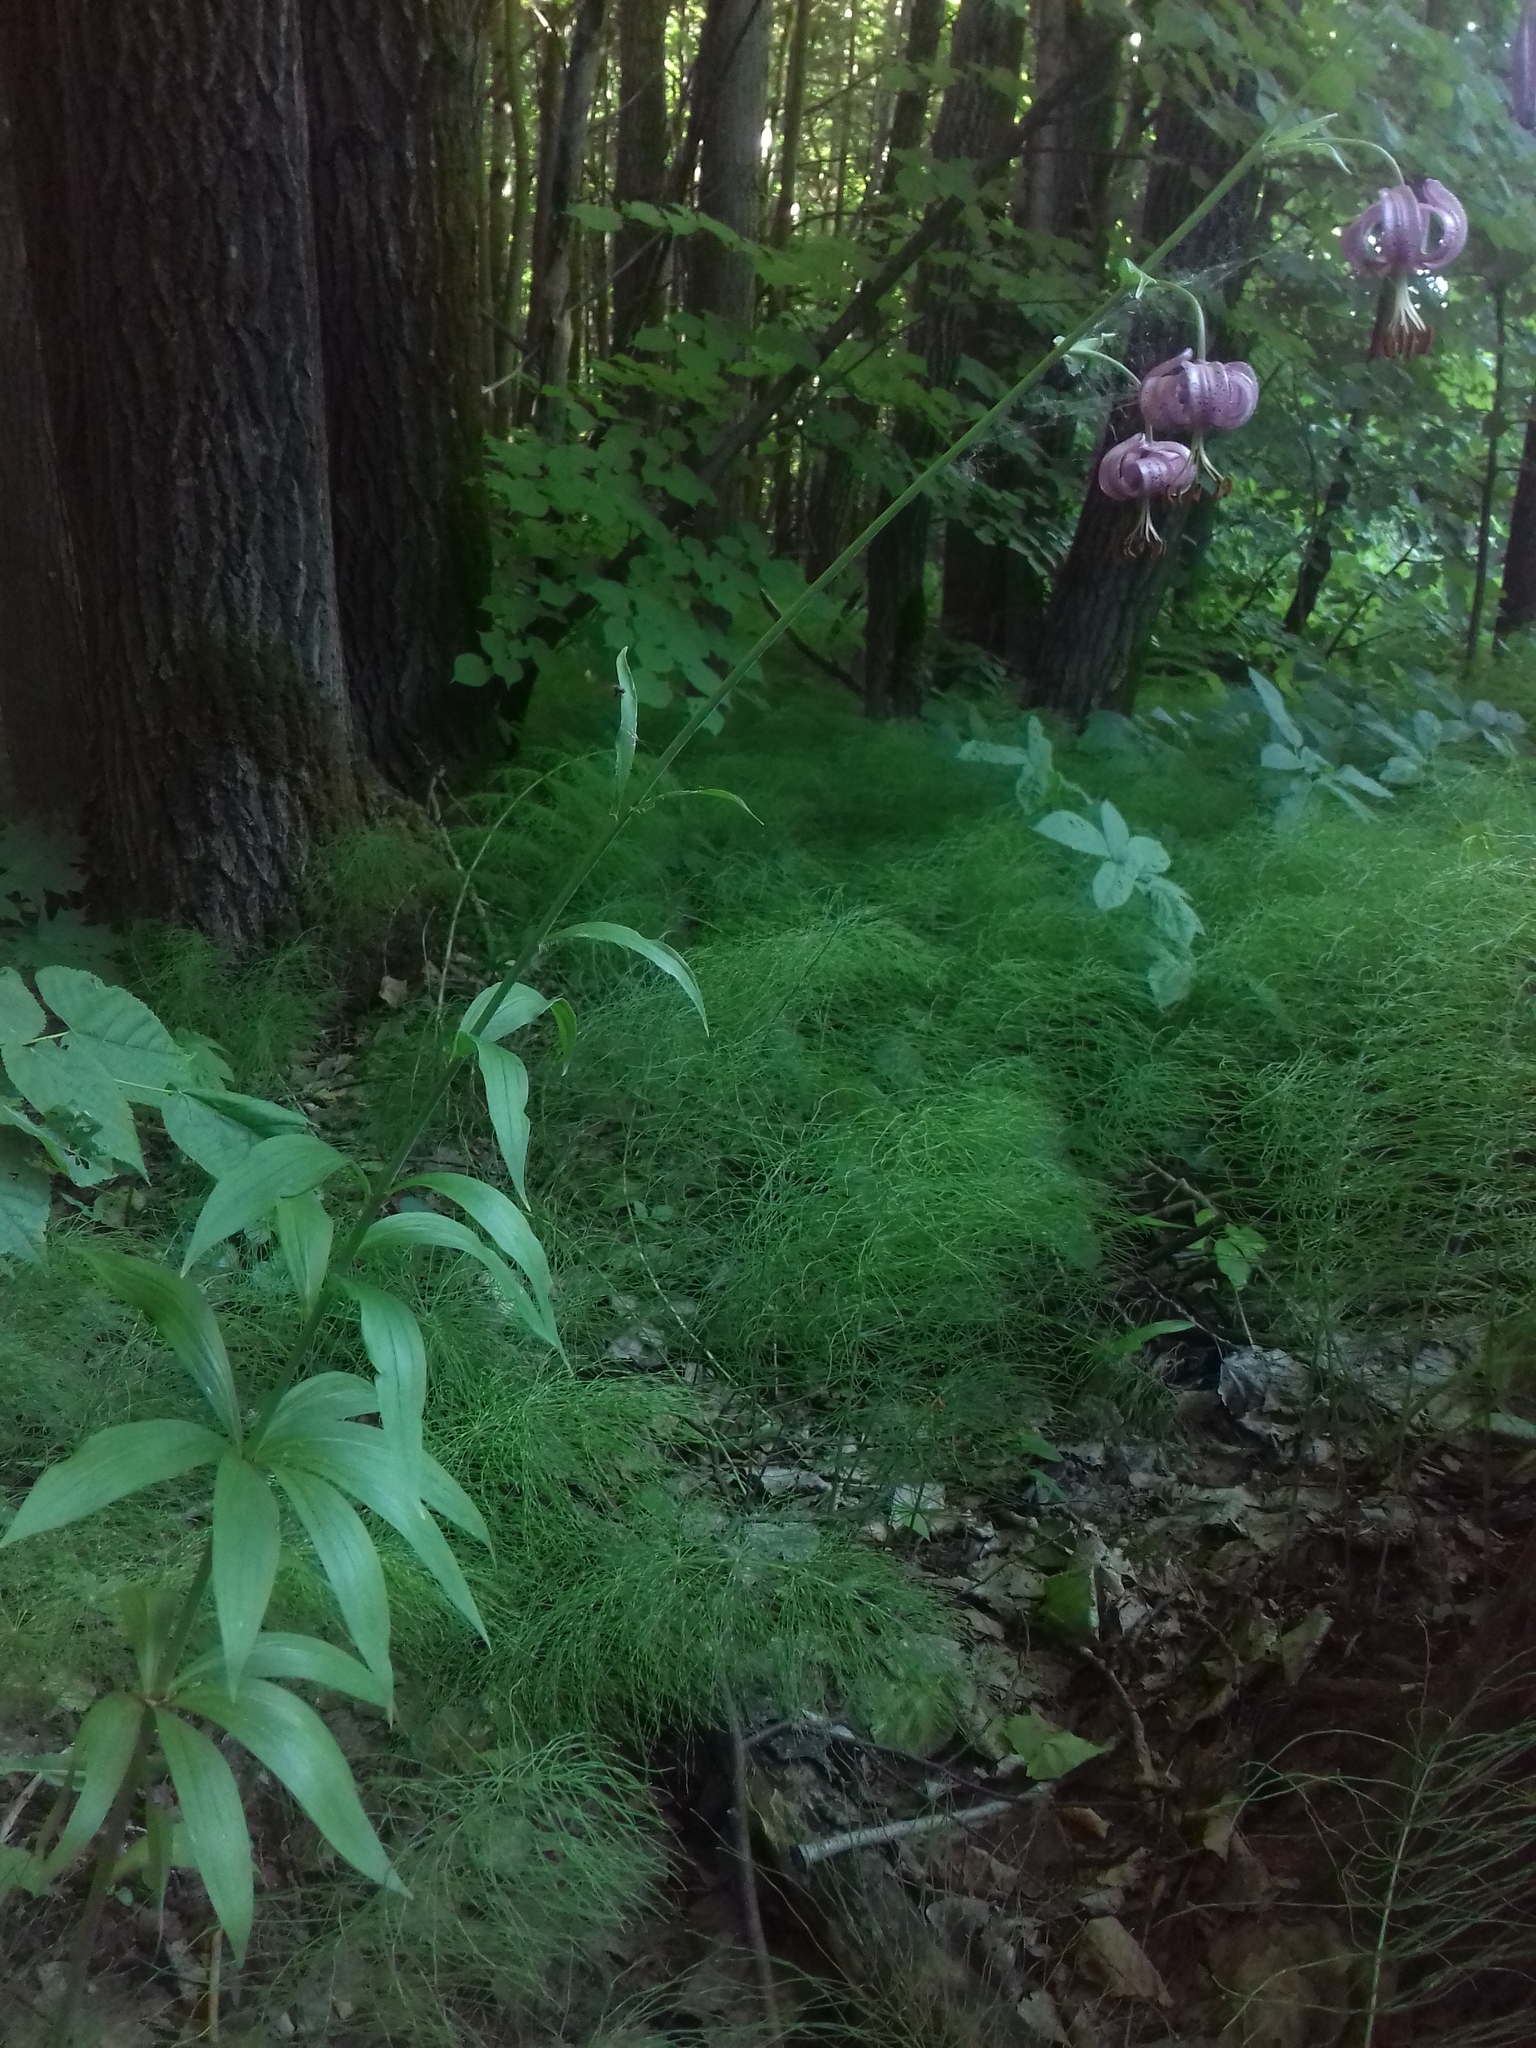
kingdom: Plantae
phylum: Tracheophyta
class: Liliopsida
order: Liliales
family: Liliaceae
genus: Lilium
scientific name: Lilium martagon
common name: Martagon lily
